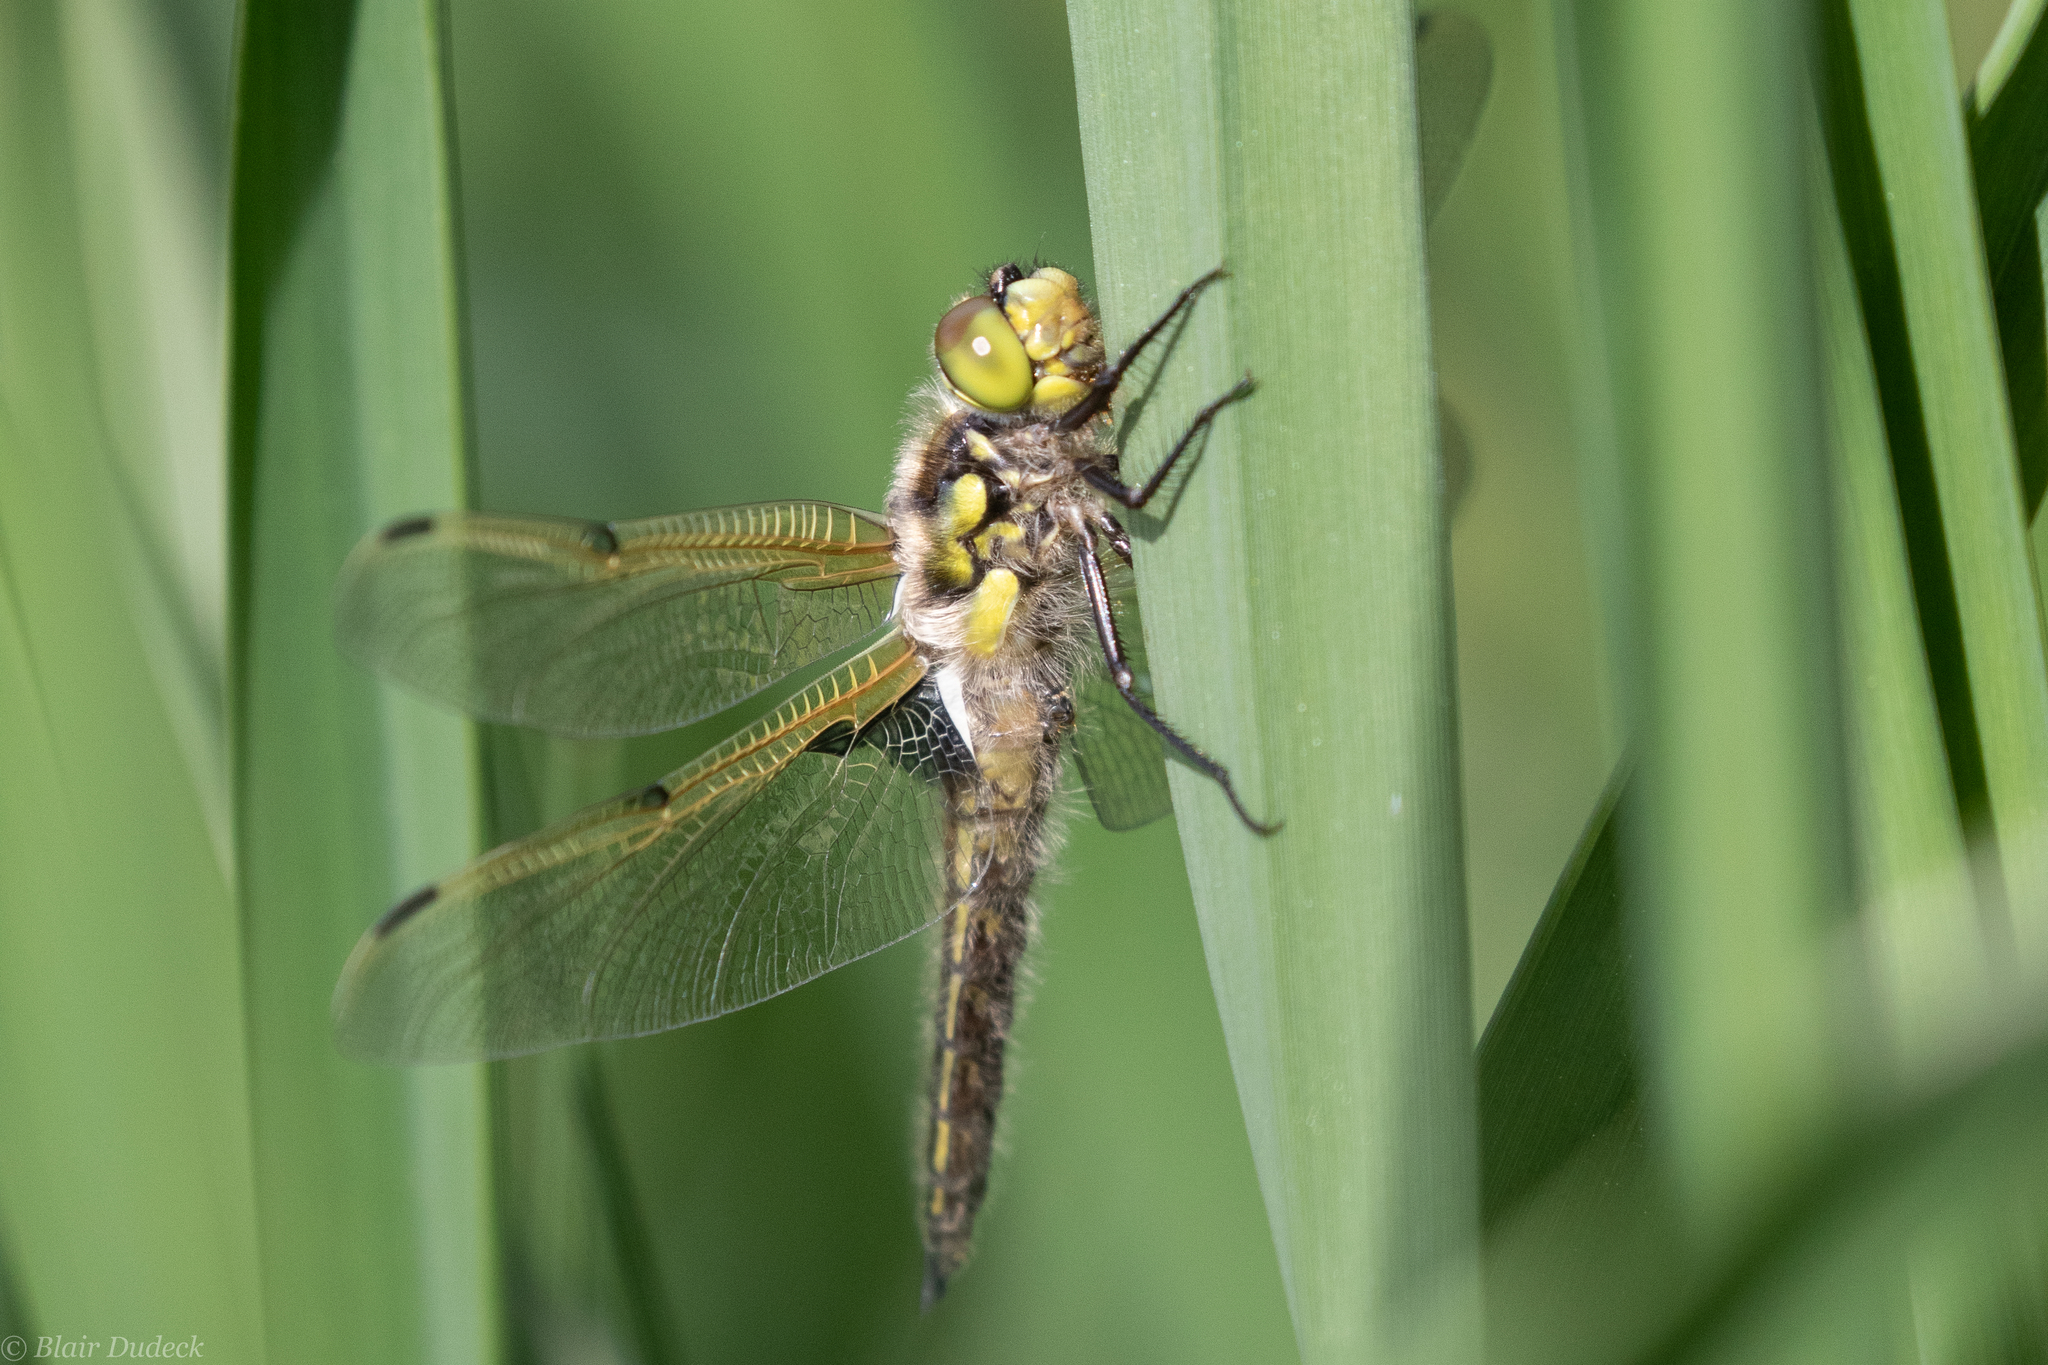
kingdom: Animalia
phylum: Arthropoda
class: Insecta
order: Odonata
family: Libellulidae
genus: Libellula
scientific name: Libellula quadrimaculata
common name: Four-spotted chaser
